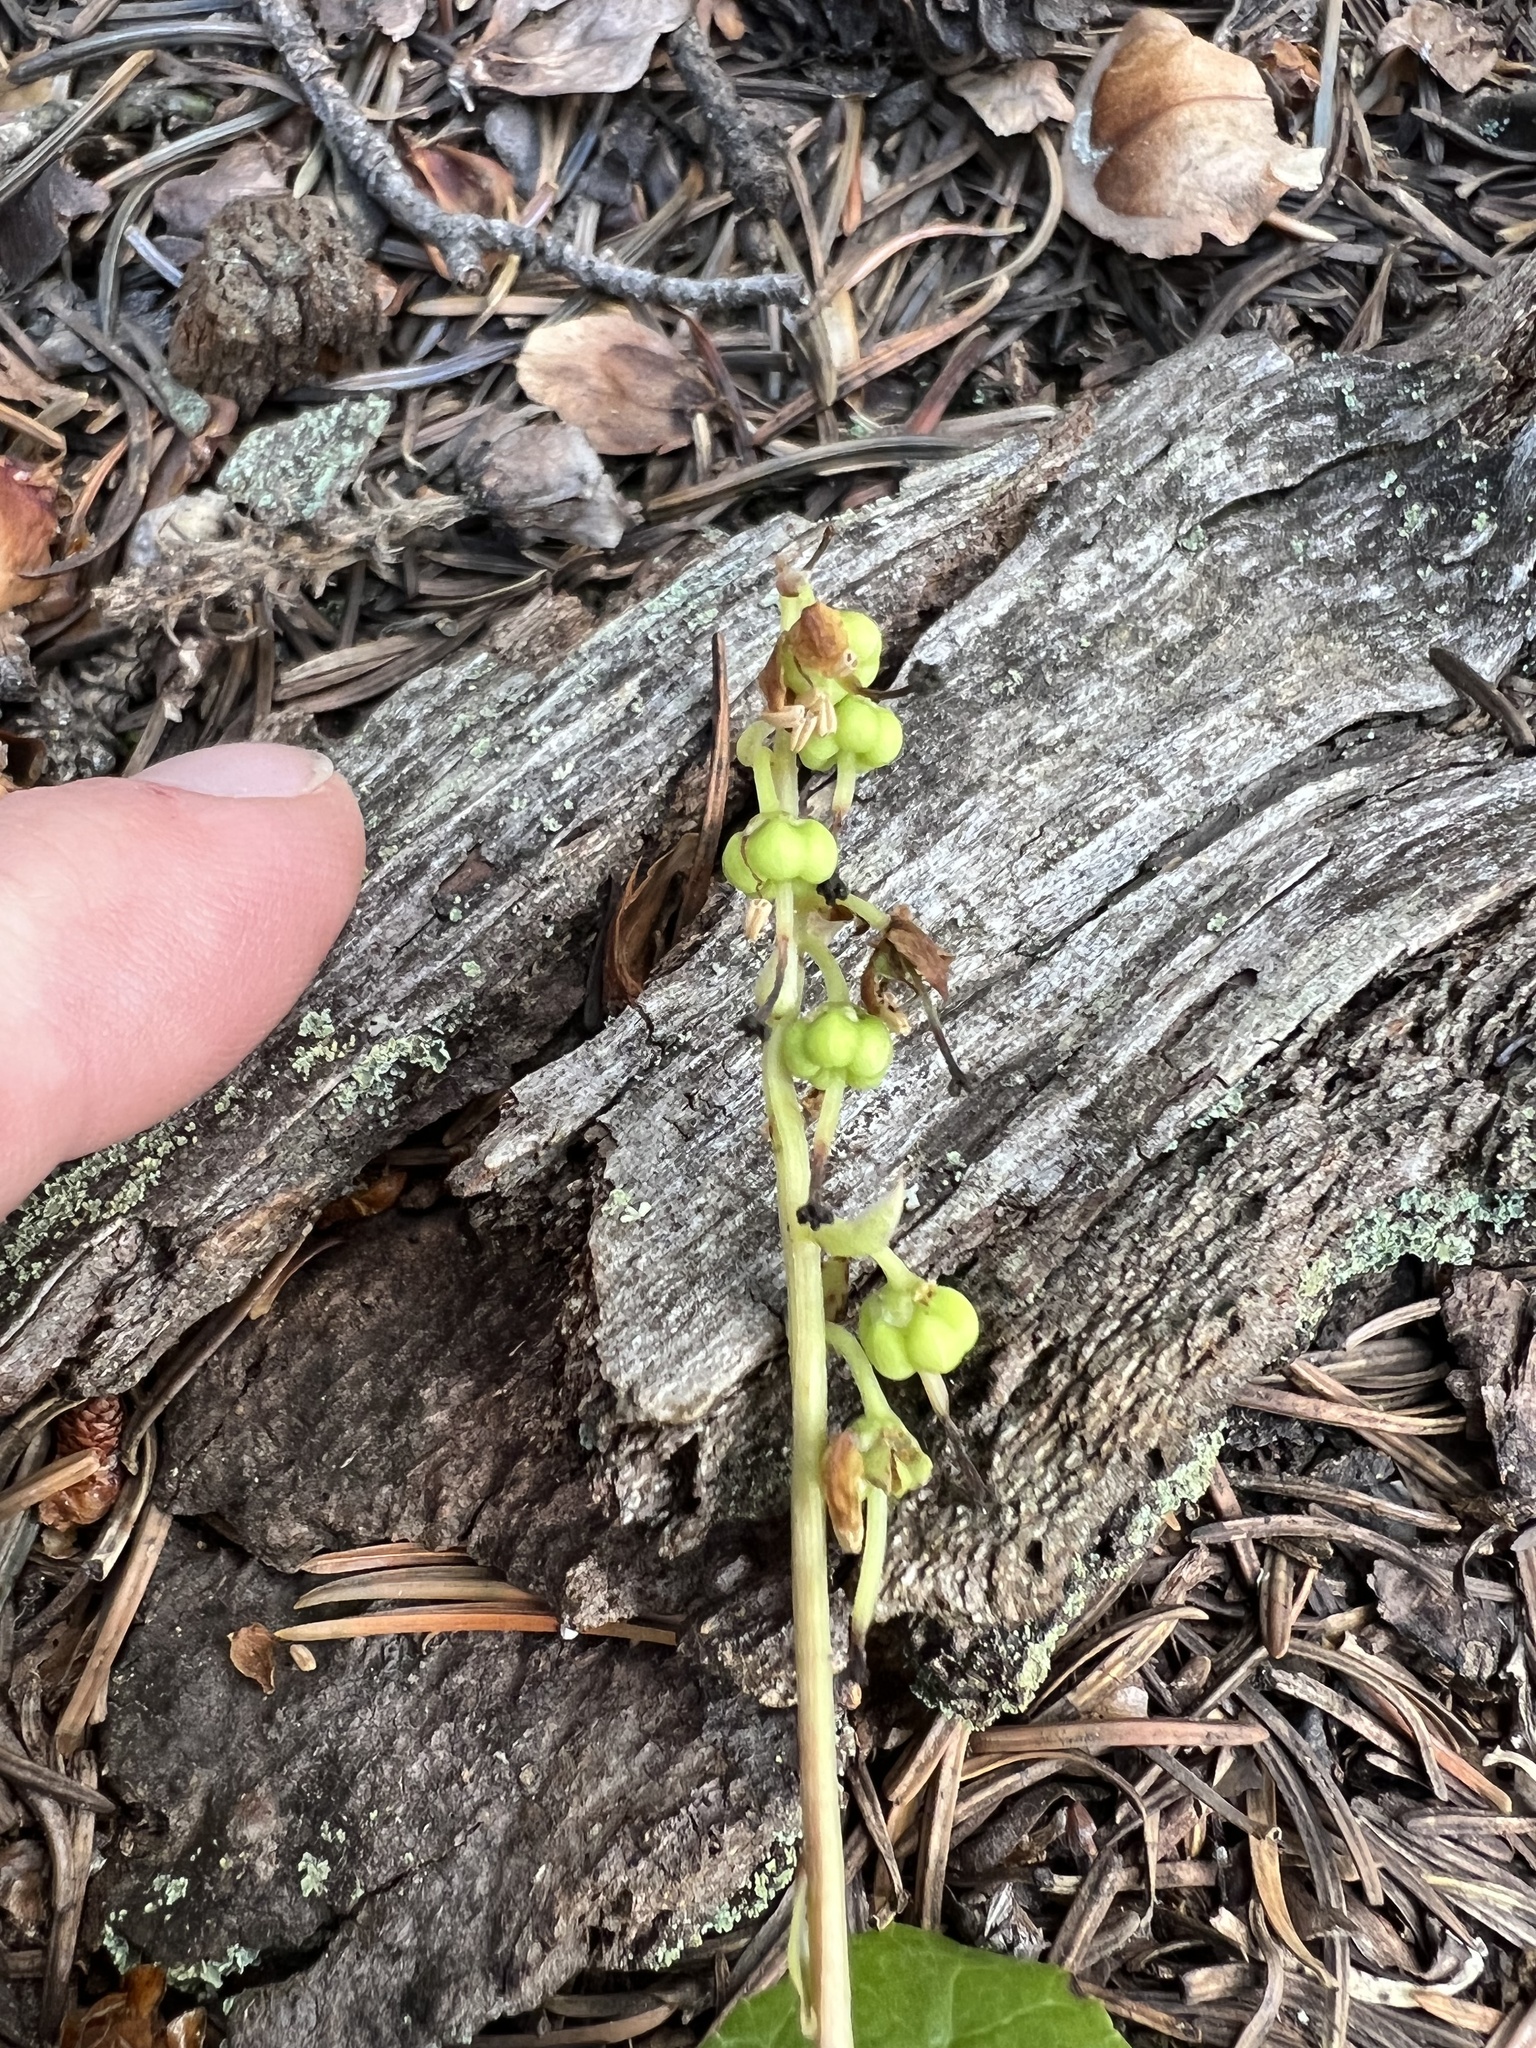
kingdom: Plantae
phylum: Tracheophyta
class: Magnoliopsida
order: Ericales
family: Ericaceae
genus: Orthilia
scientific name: Orthilia secunda
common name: One-sided orthilia
